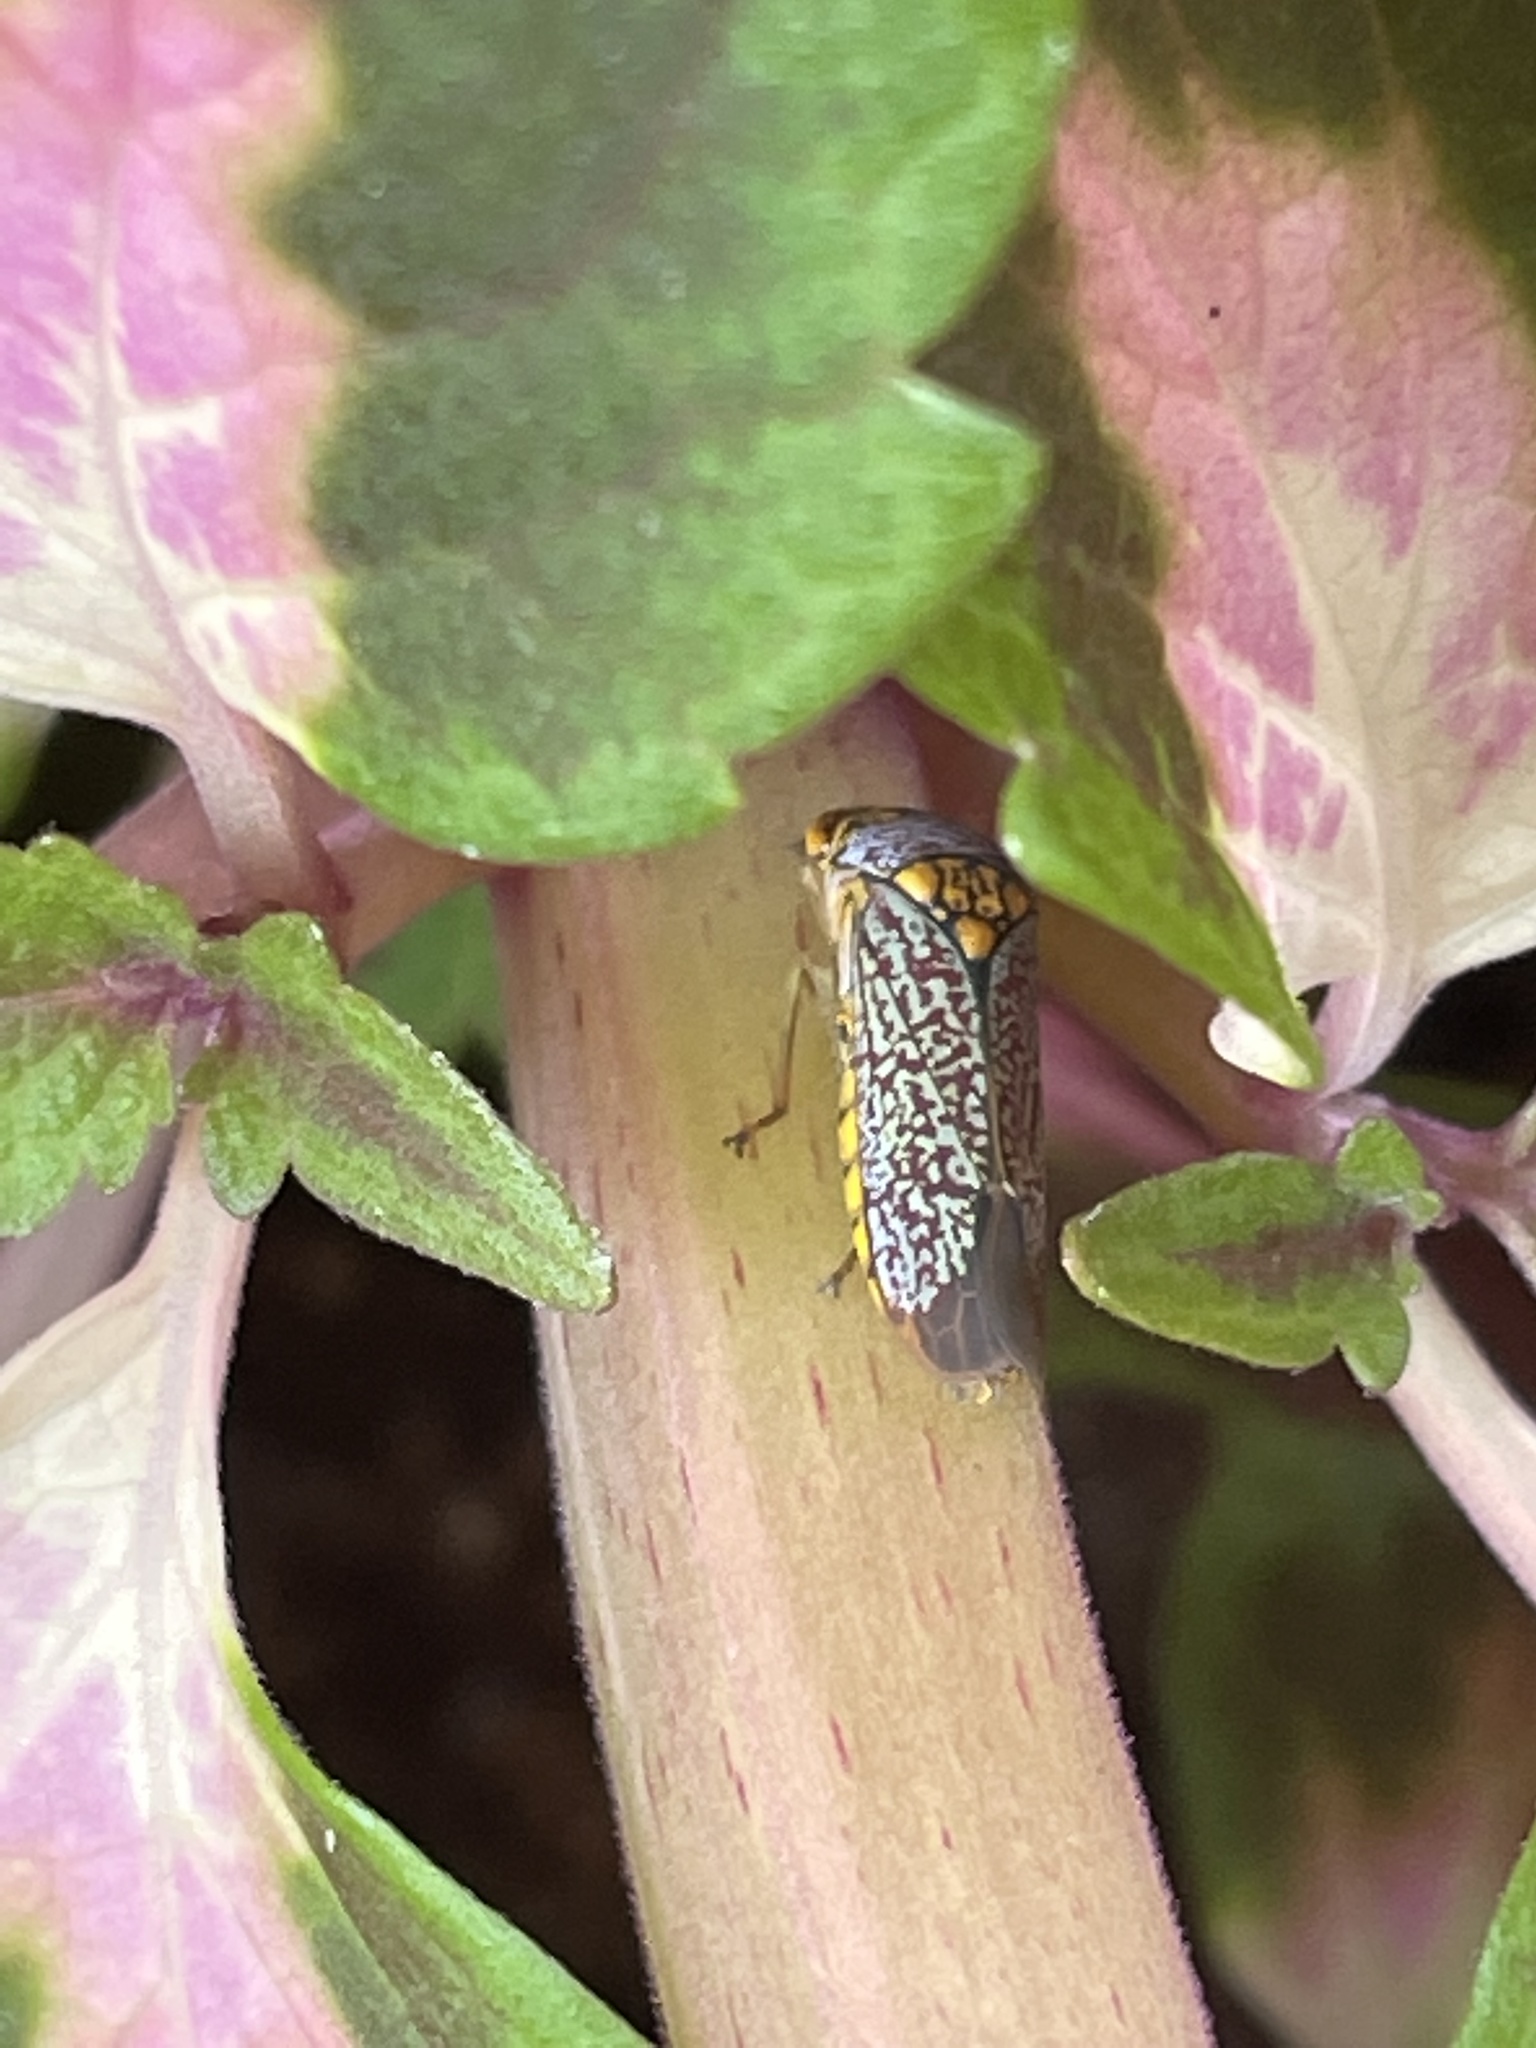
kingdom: Animalia
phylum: Arthropoda
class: Insecta
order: Hemiptera
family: Cicadellidae
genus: Oncometopia
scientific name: Oncometopia orbona
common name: Broad-headed sharpshooter
